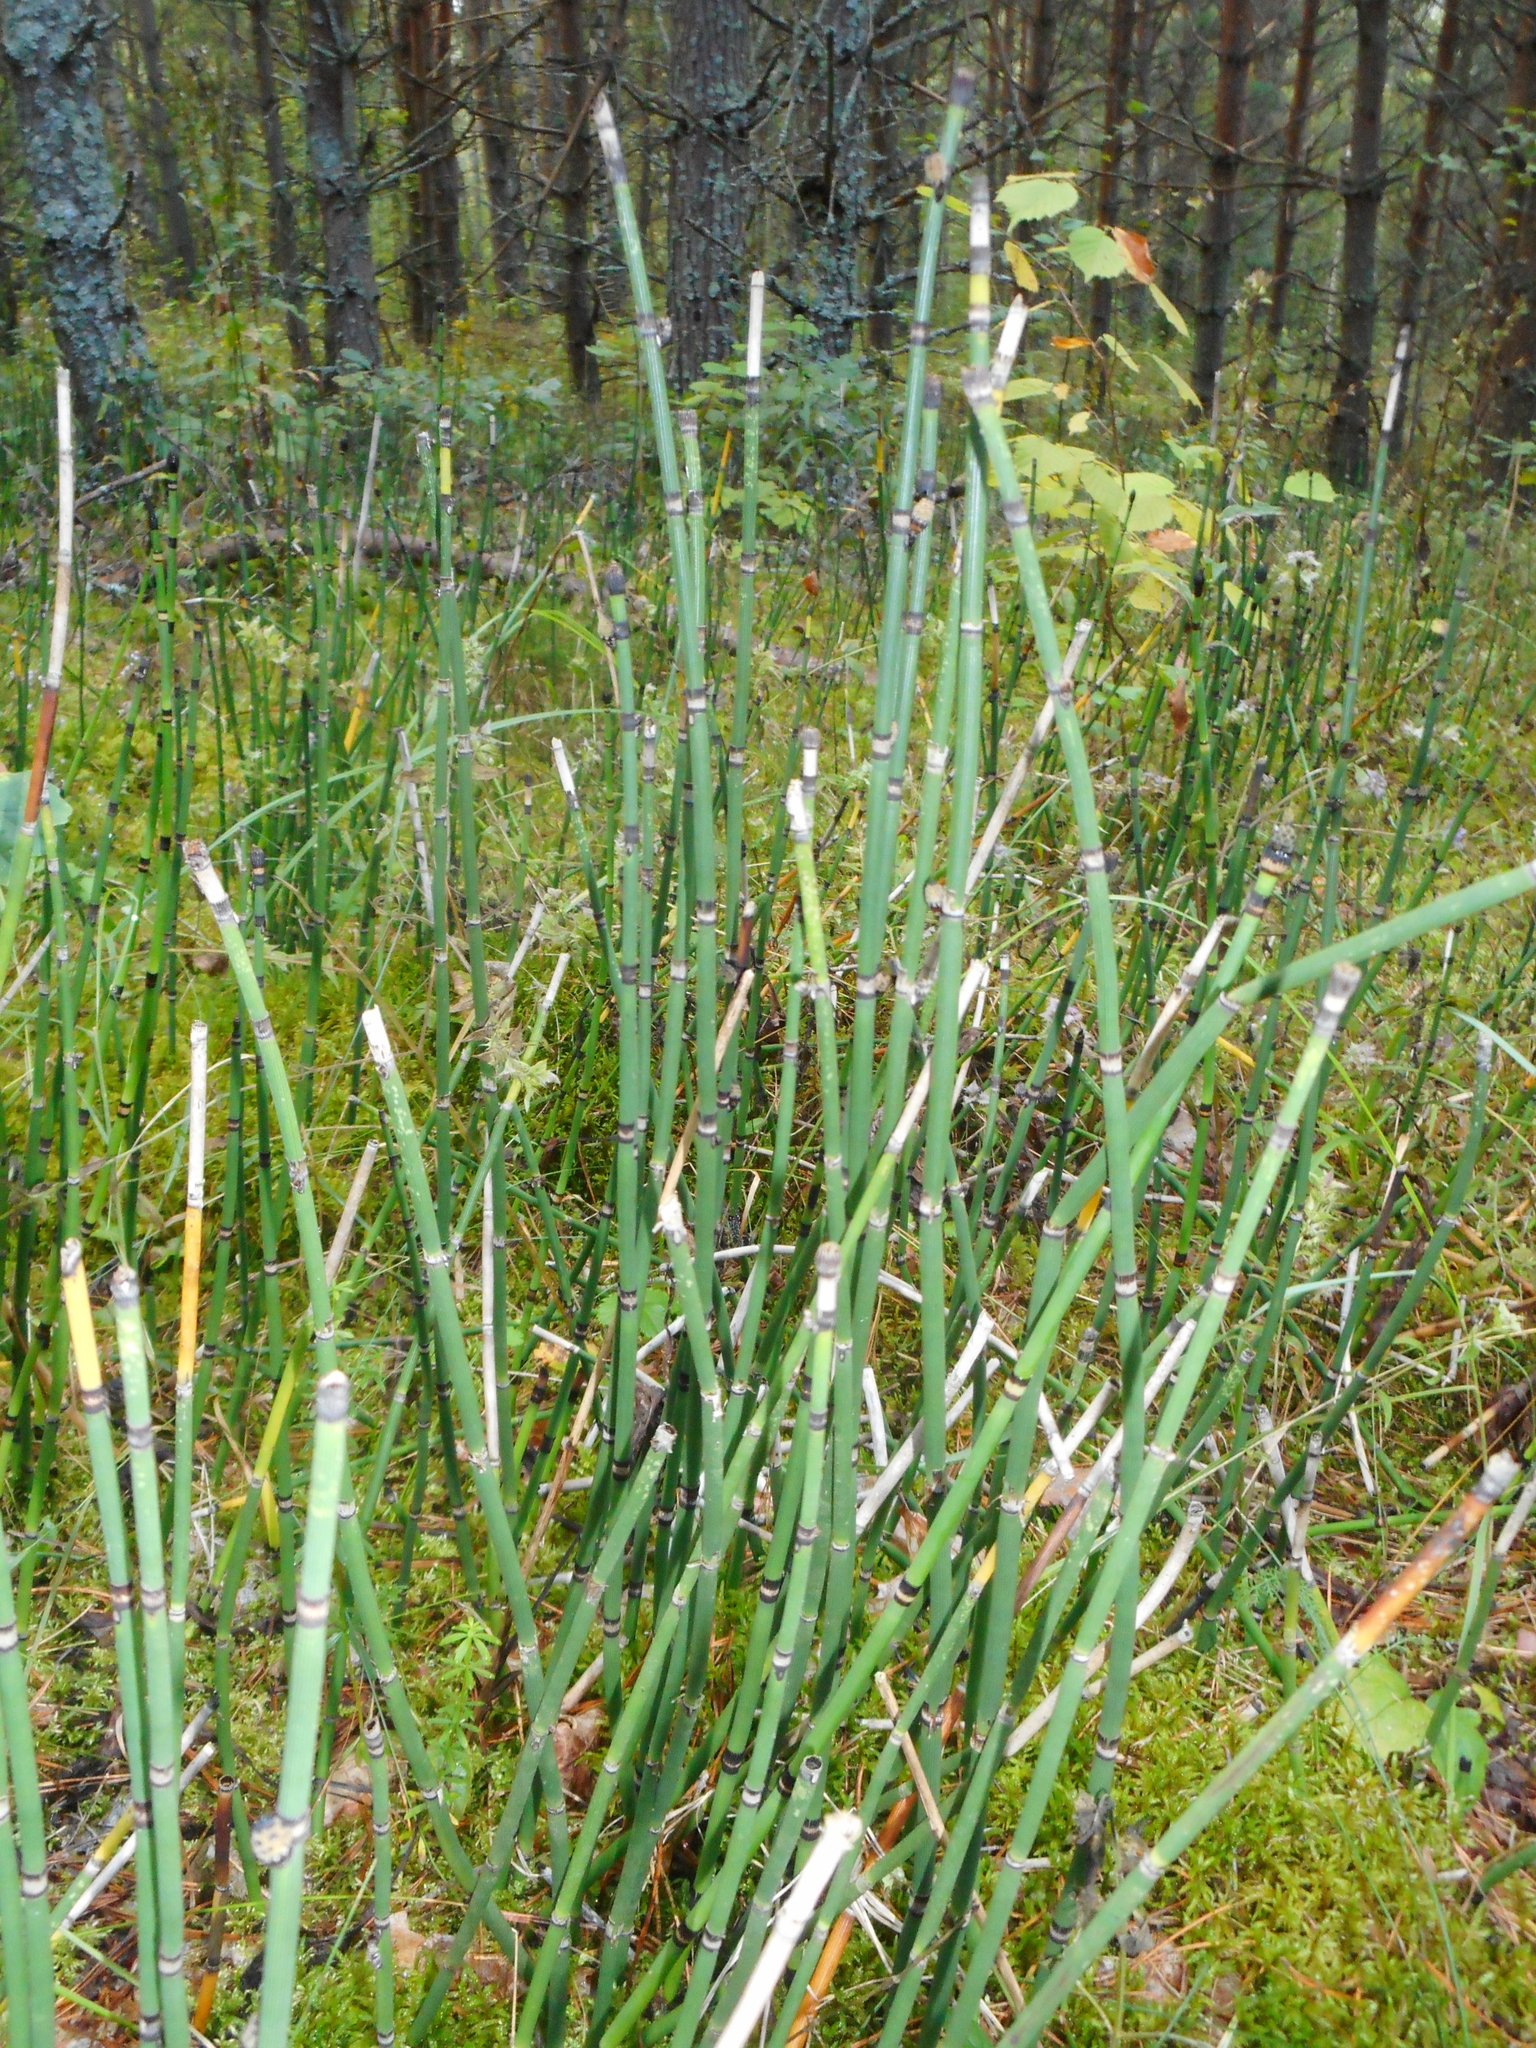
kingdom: Plantae
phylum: Tracheophyta
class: Polypodiopsida
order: Equisetales
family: Equisetaceae
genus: Equisetum
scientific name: Equisetum hyemale
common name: Rough horsetail
